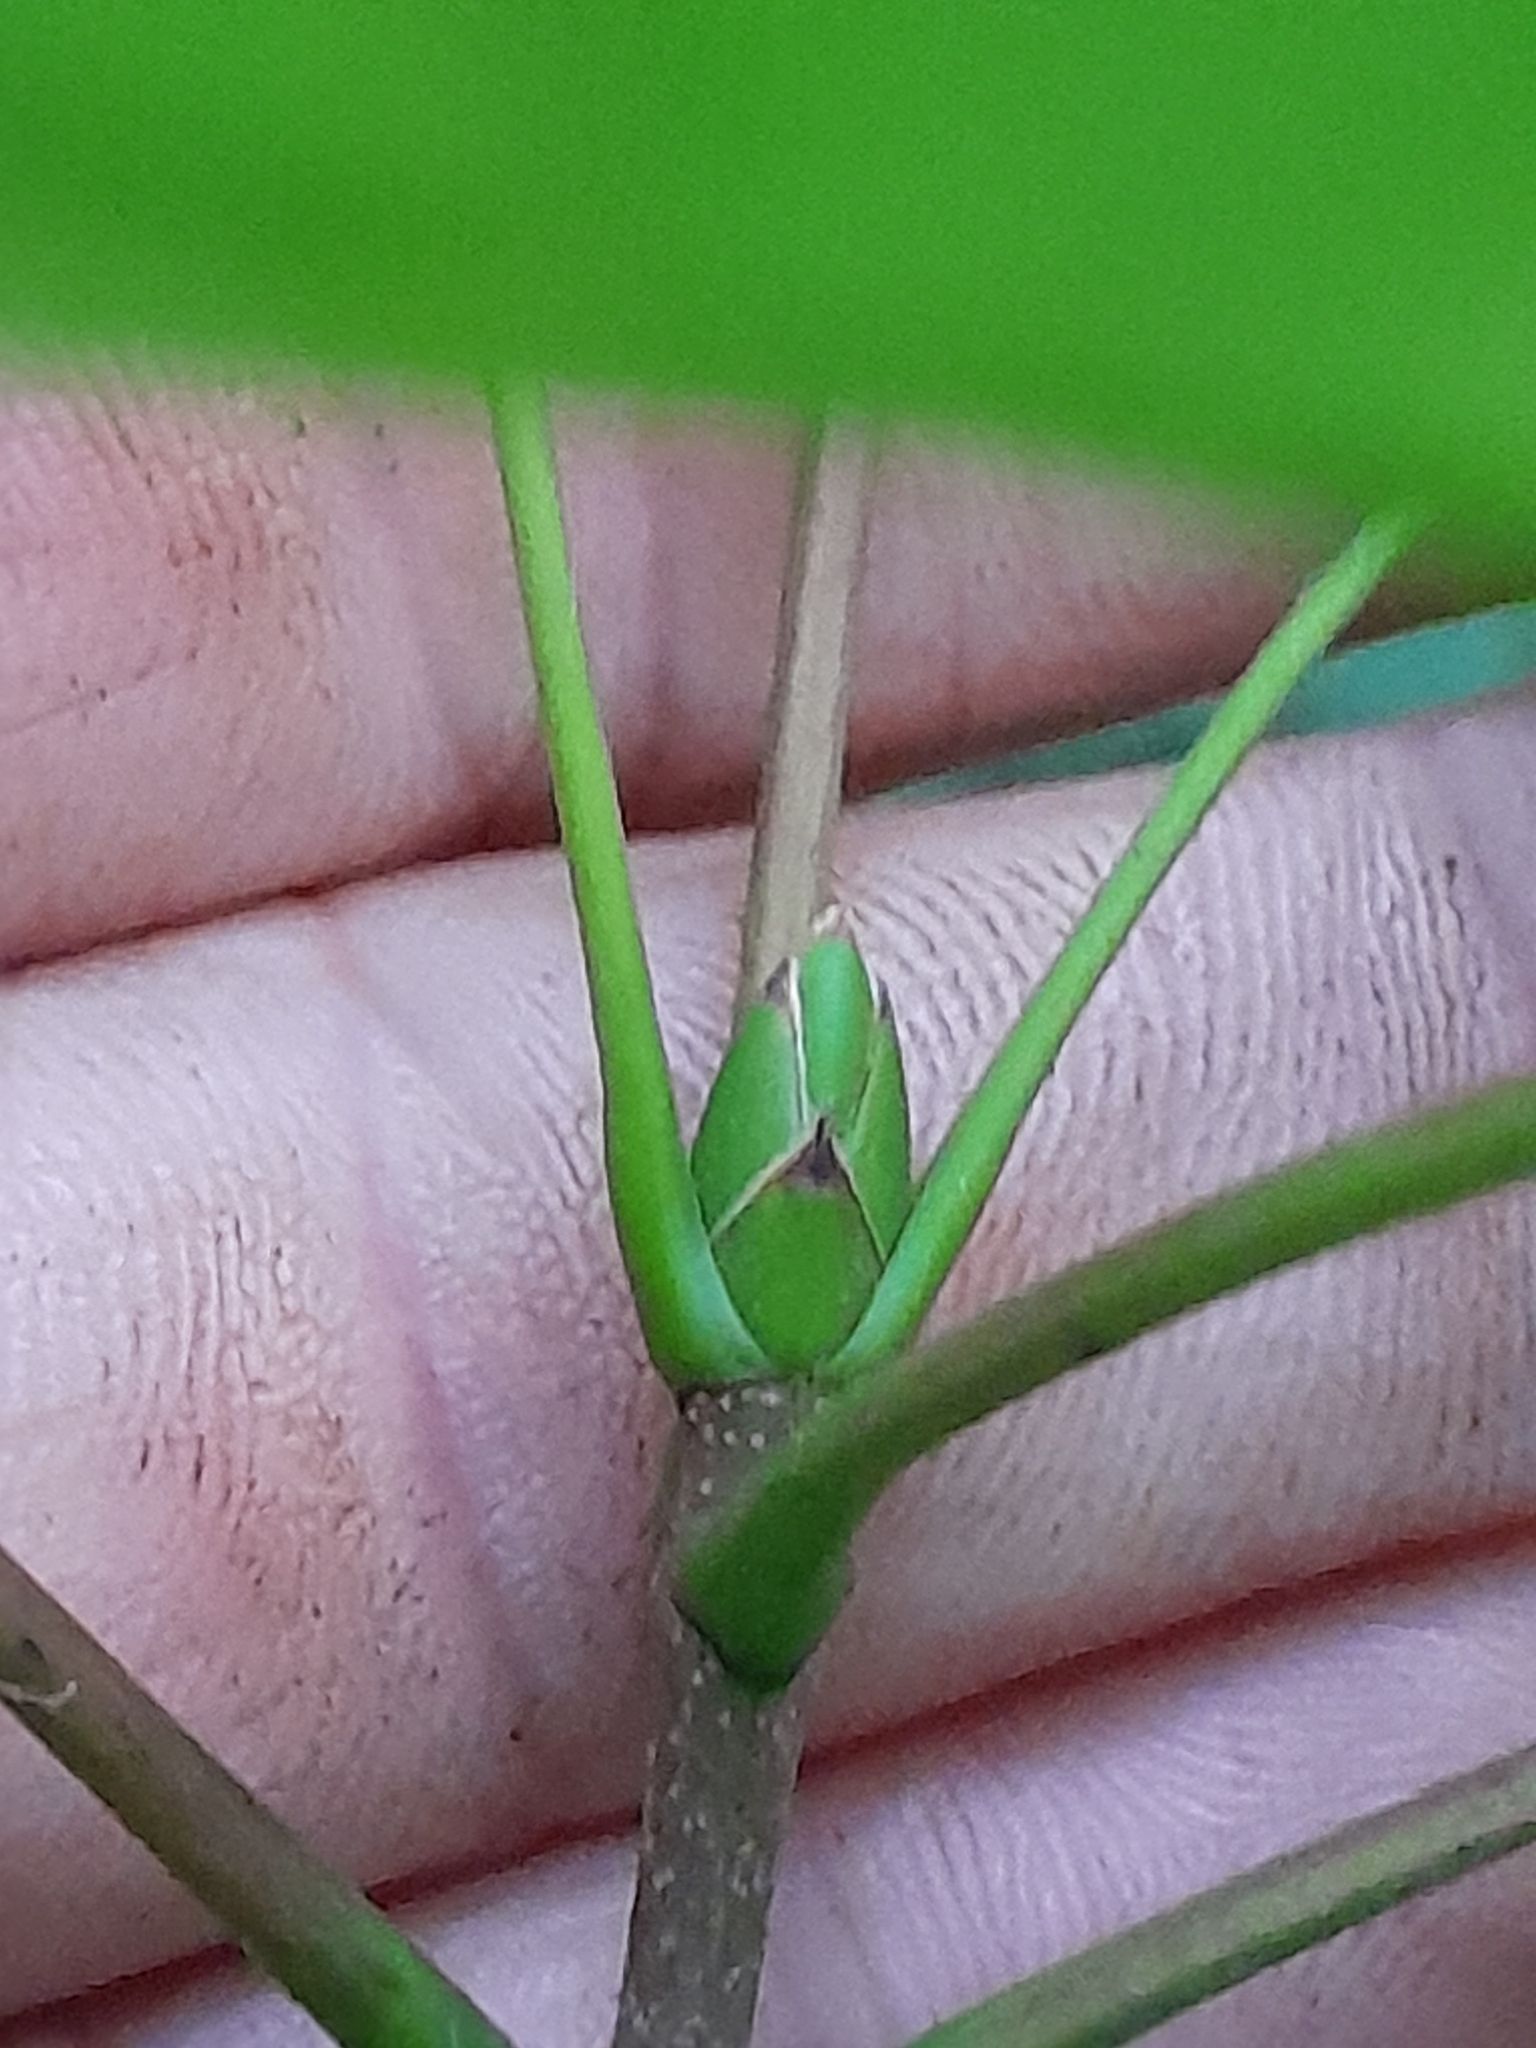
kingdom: Plantae
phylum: Tracheophyta
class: Magnoliopsida
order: Sapindales
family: Sapindaceae
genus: Acer
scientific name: Acer pseudoplatanus
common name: Sycamore
